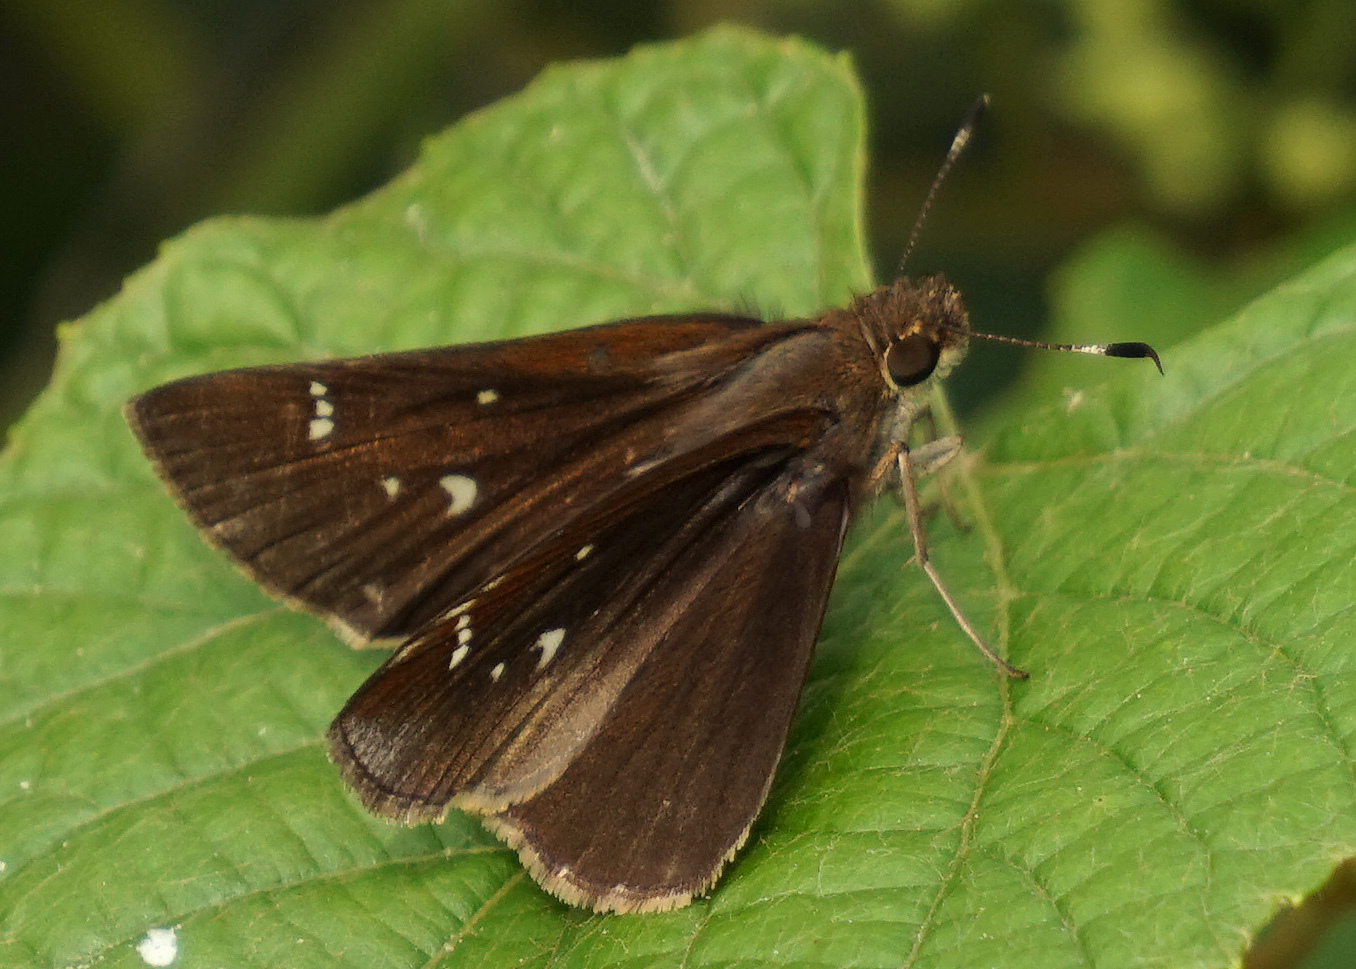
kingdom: Animalia
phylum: Arthropoda
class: Insecta
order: Lepidoptera
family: Hesperiidae
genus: Lerema
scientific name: Lerema accius
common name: Clouded skipper
